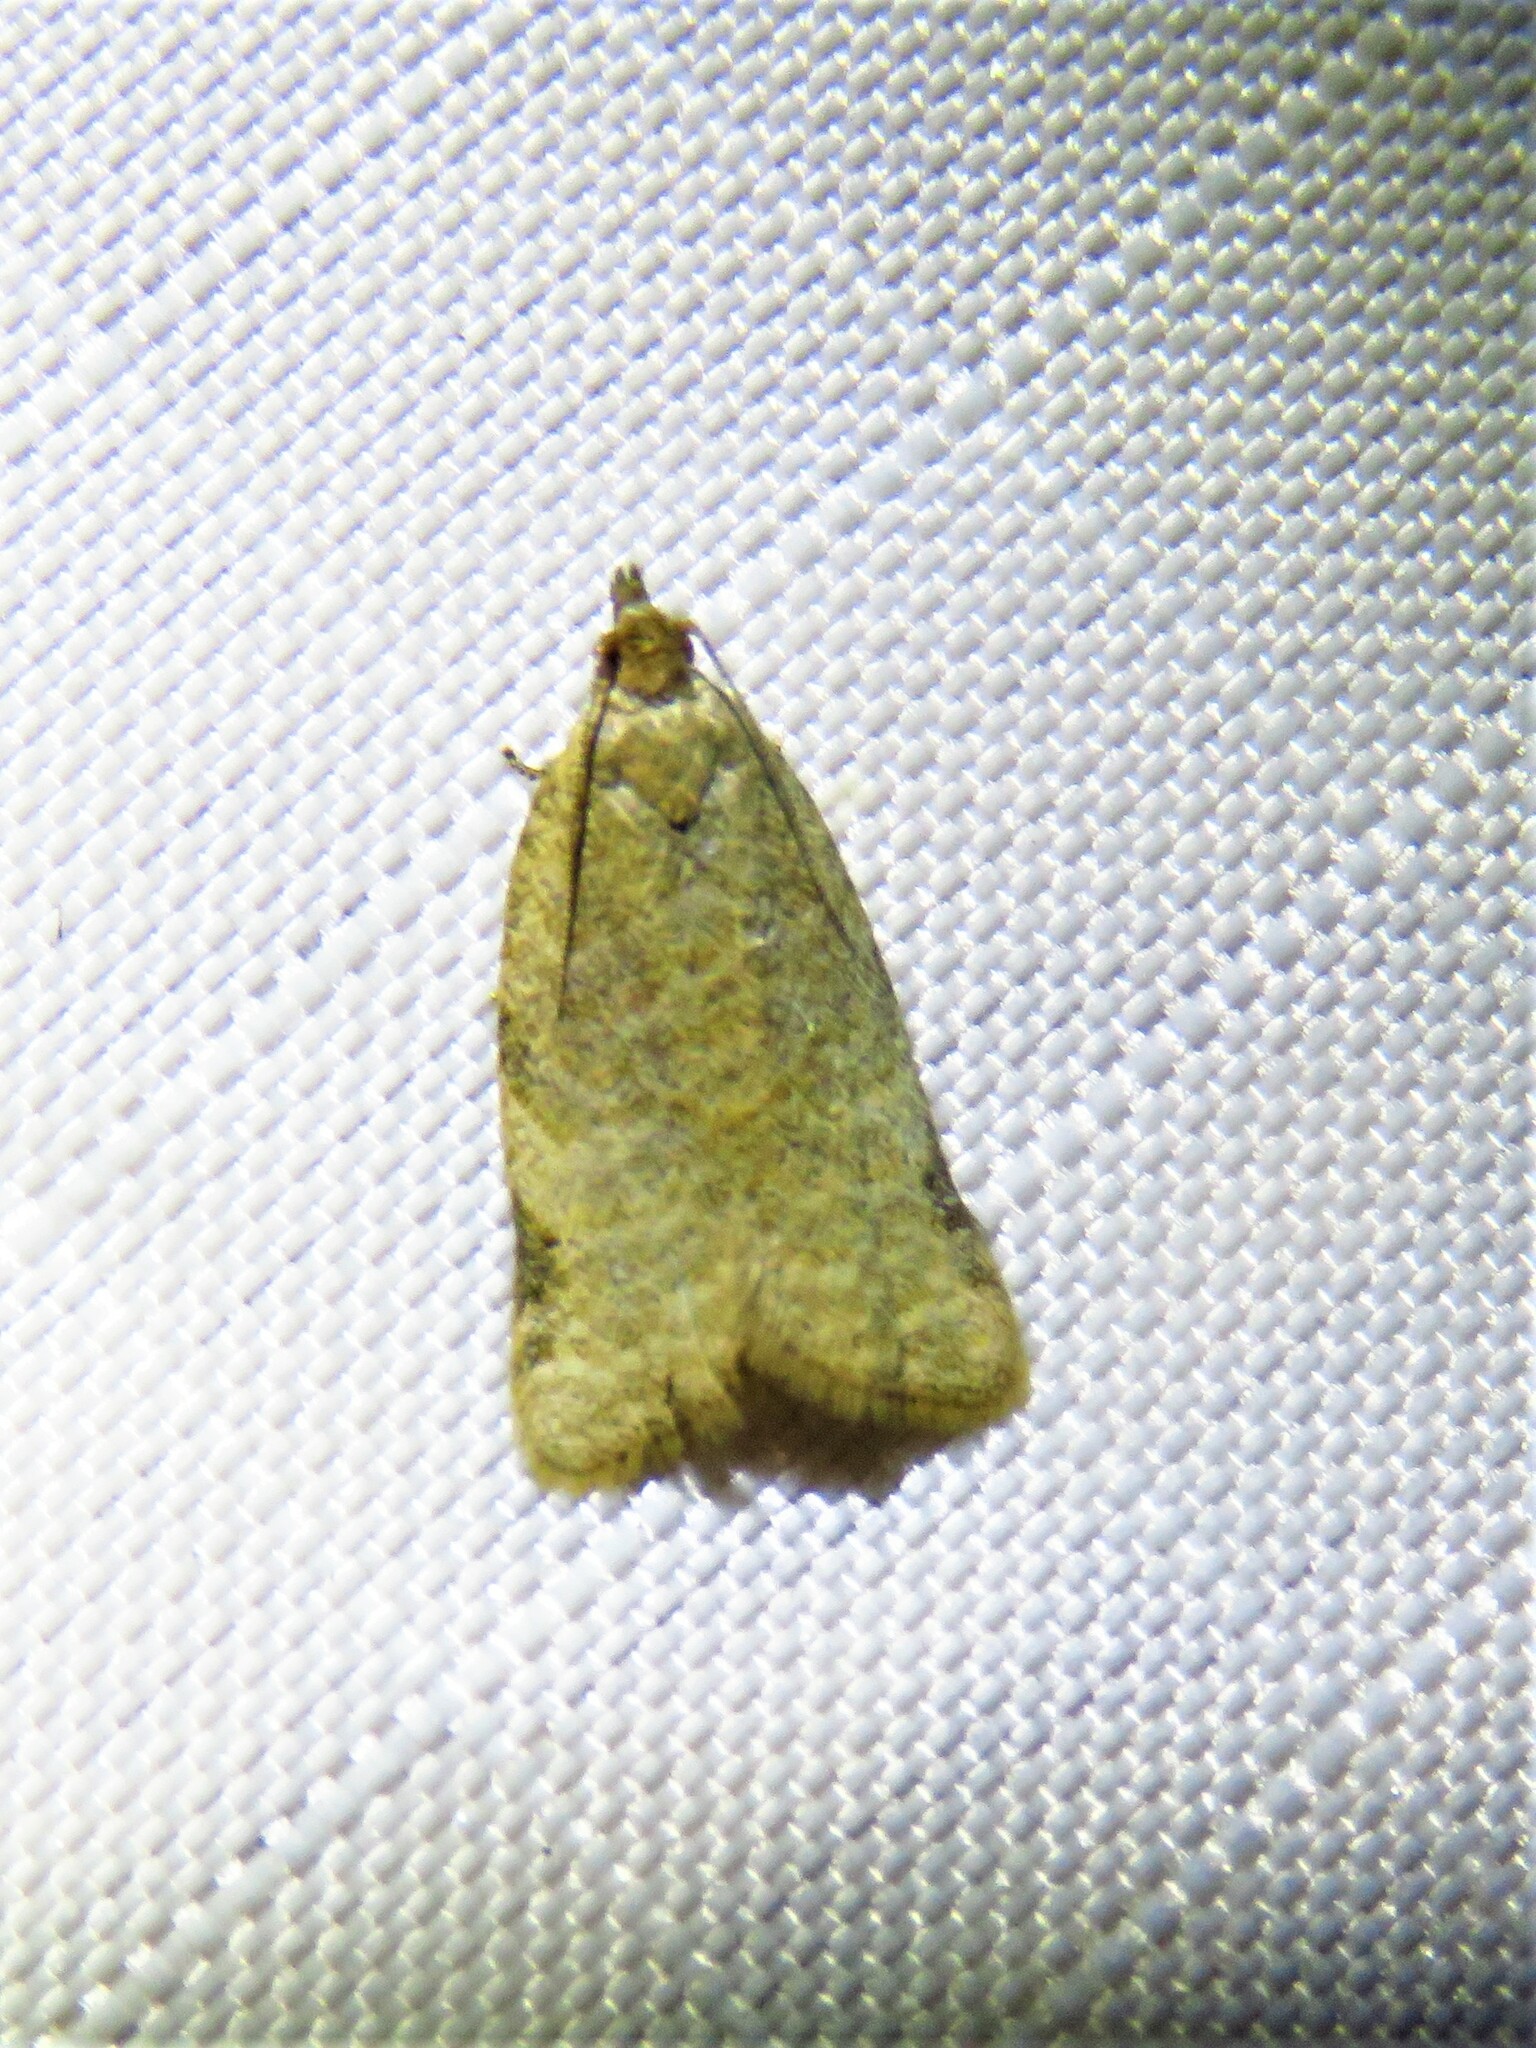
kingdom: Animalia
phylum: Arthropoda
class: Insecta
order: Lepidoptera
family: Tortricidae
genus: Clepsis
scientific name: Clepsis virescana
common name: Greenish apple moth
